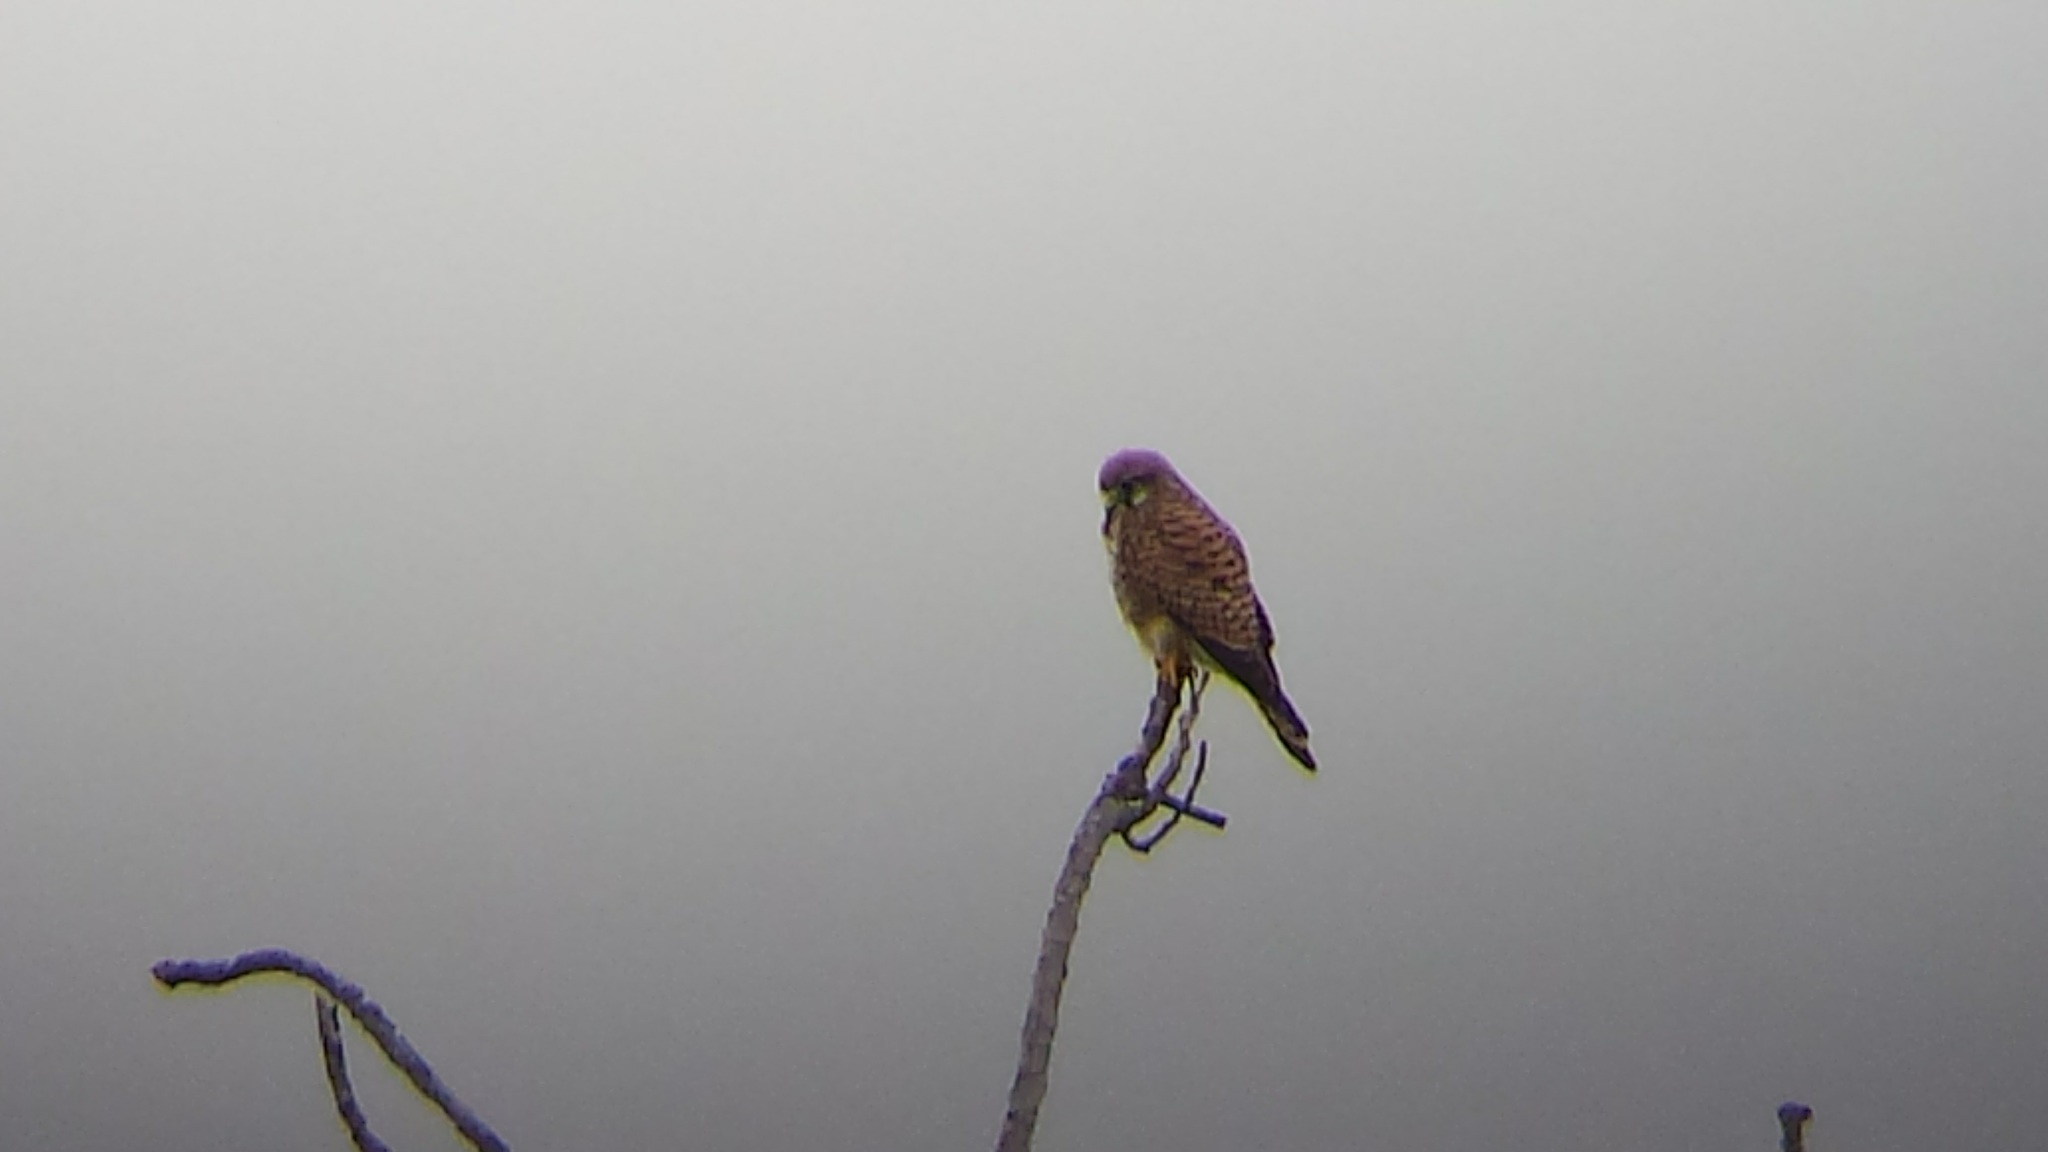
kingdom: Animalia
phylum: Chordata
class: Aves
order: Falconiformes
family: Falconidae
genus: Falco
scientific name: Falco tinnunculus
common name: Common kestrel
